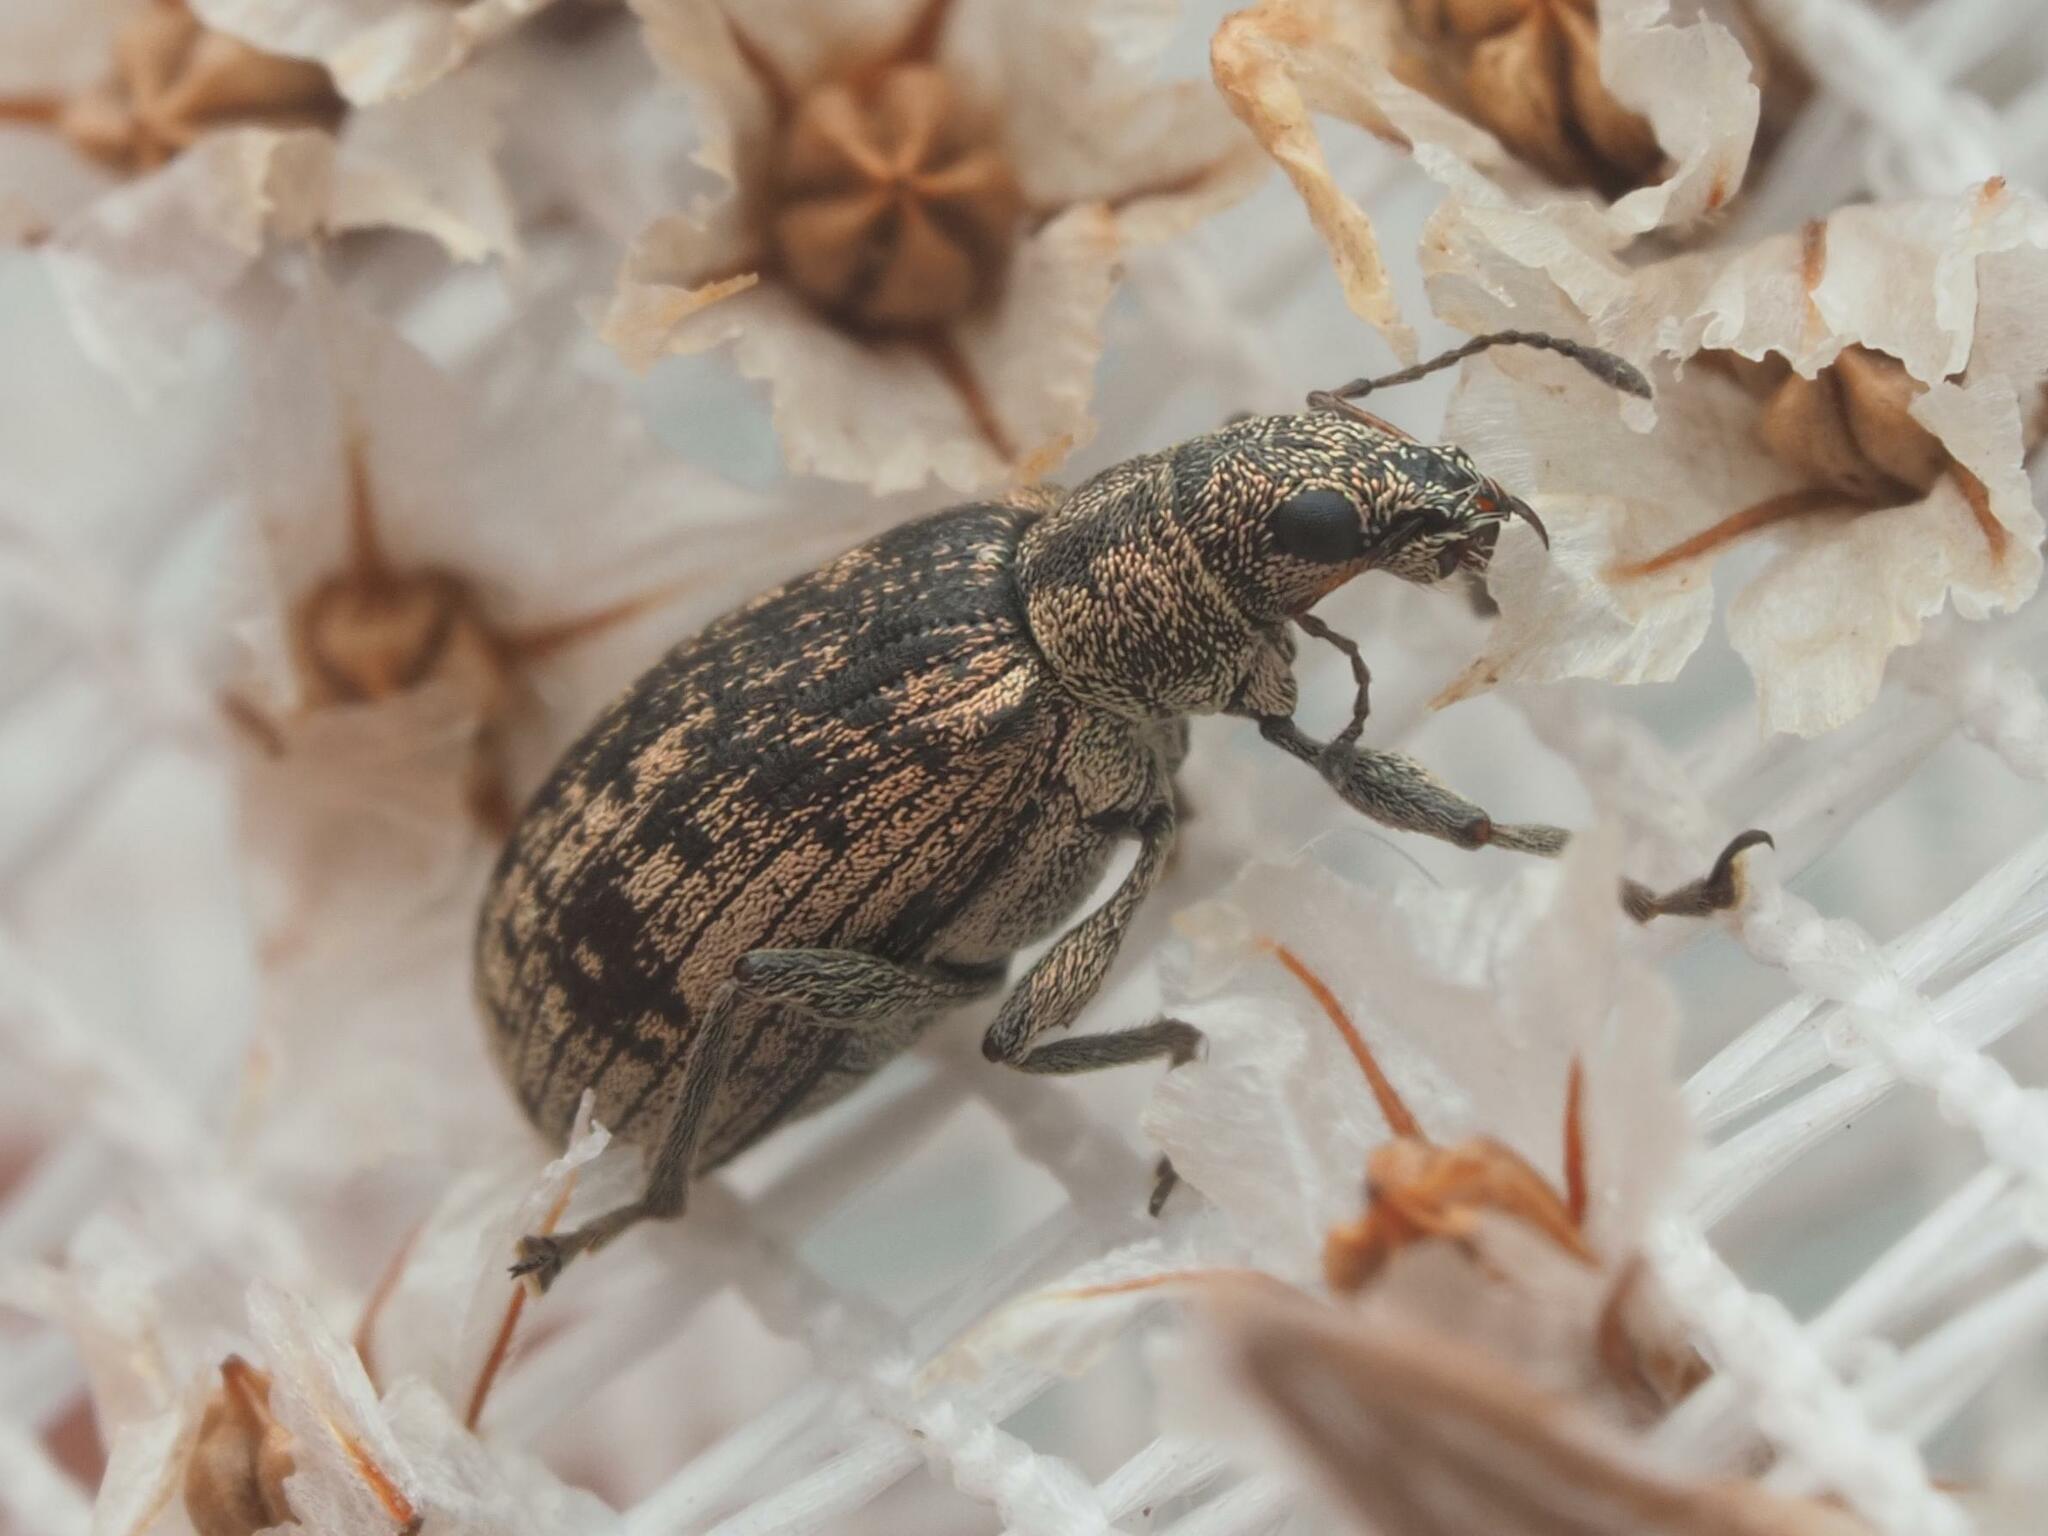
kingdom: Animalia
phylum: Arthropoda
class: Insecta
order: Coleoptera
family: Curculionidae
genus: Polydrusus
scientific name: Polydrusus cervinus
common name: Weevil
